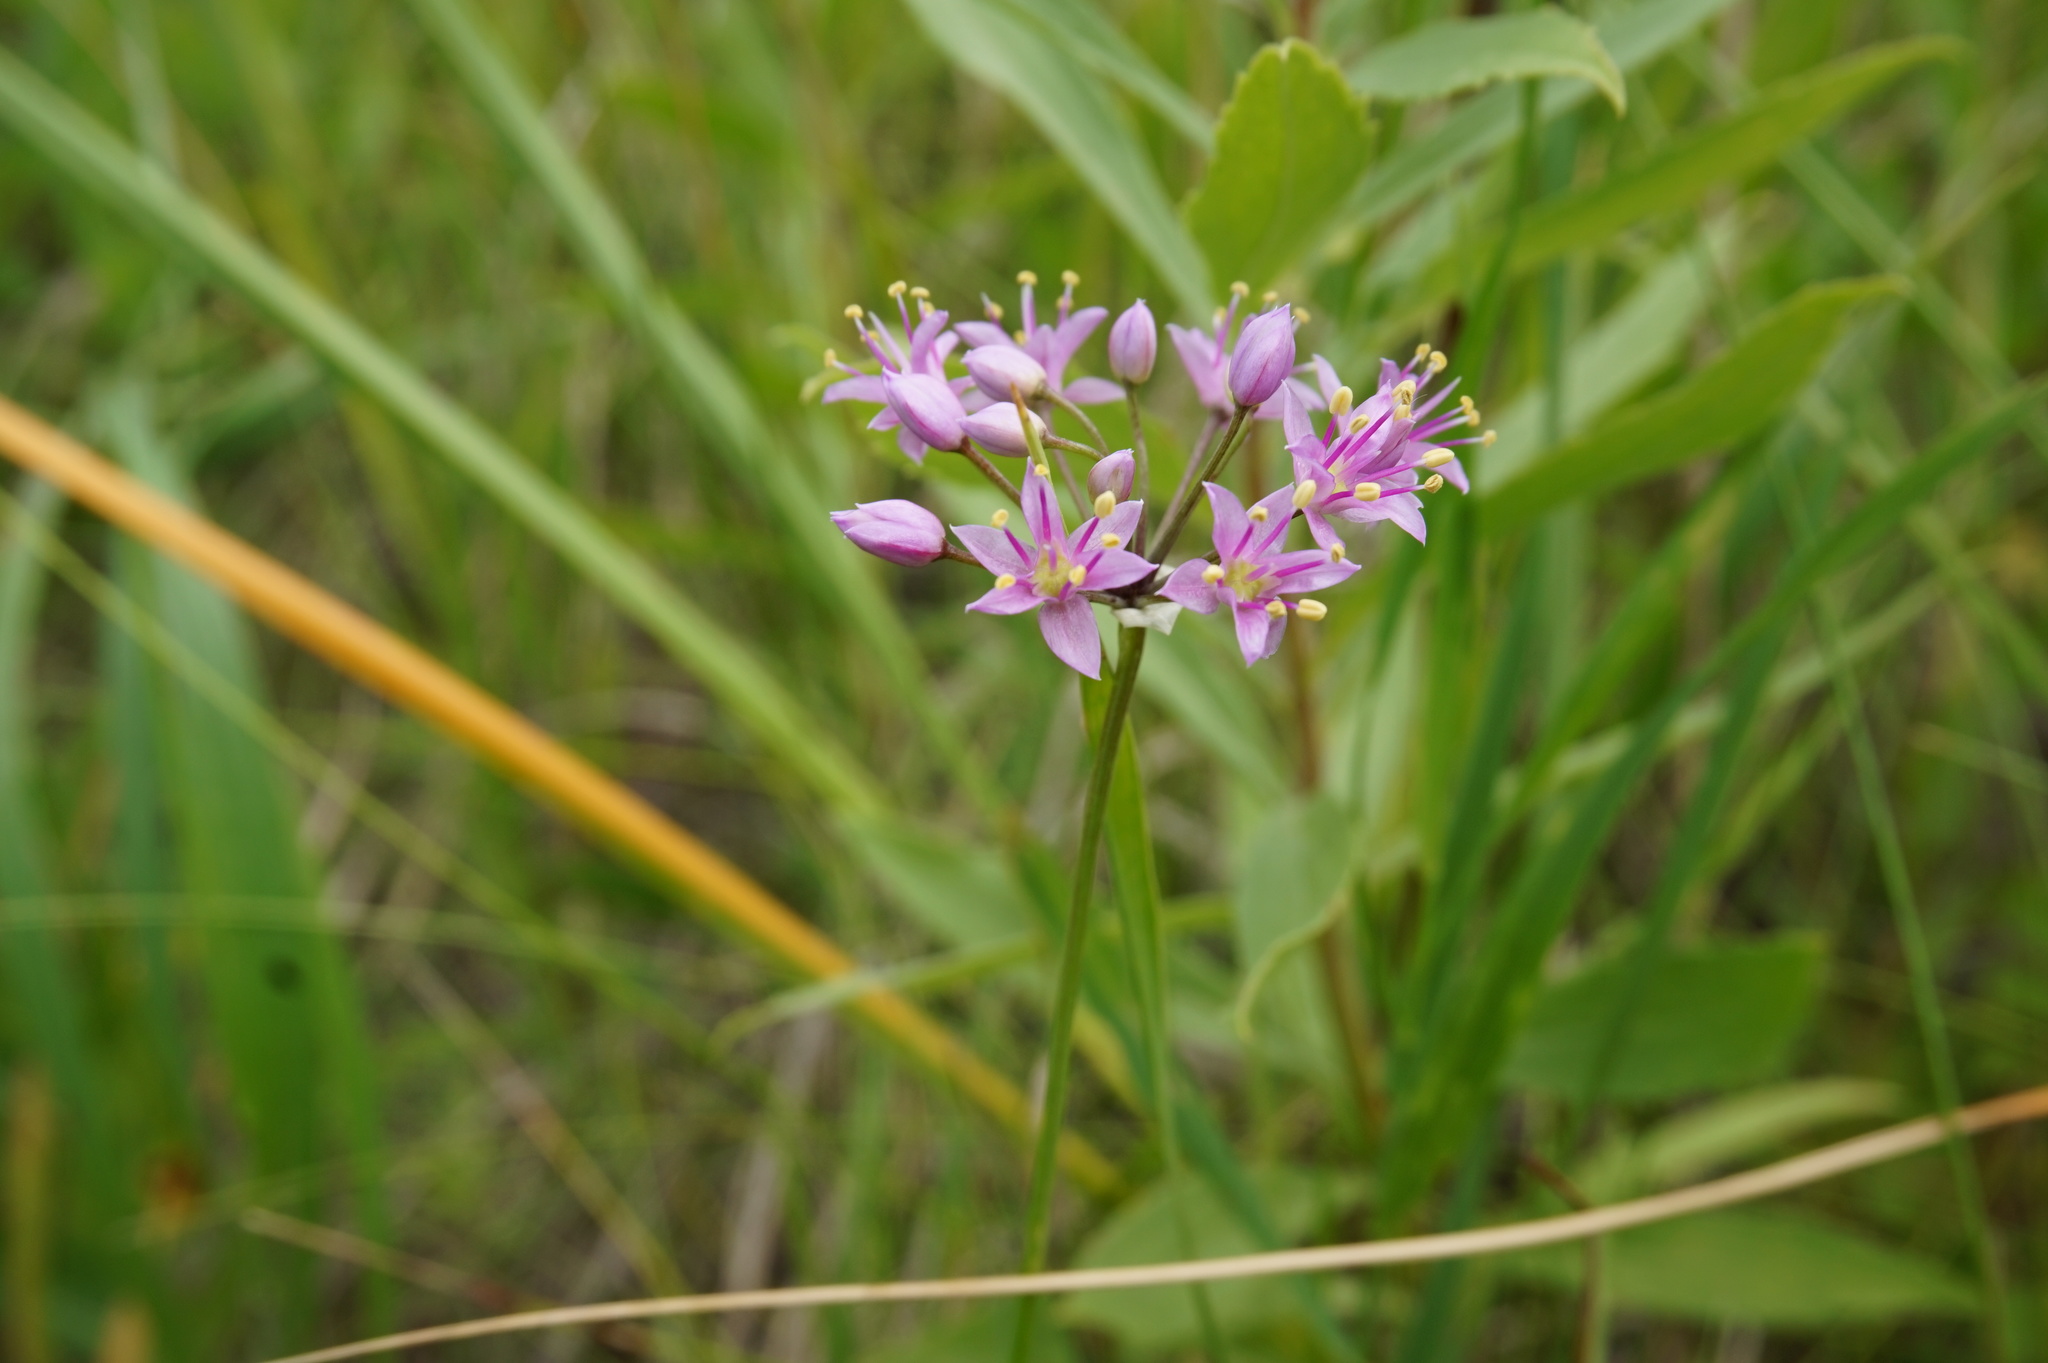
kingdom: Plantae
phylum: Tracheophyta
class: Liliopsida
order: Asparagales
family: Amaryllidaceae
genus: Allium
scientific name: Allium stellatum
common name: Autumn onion
